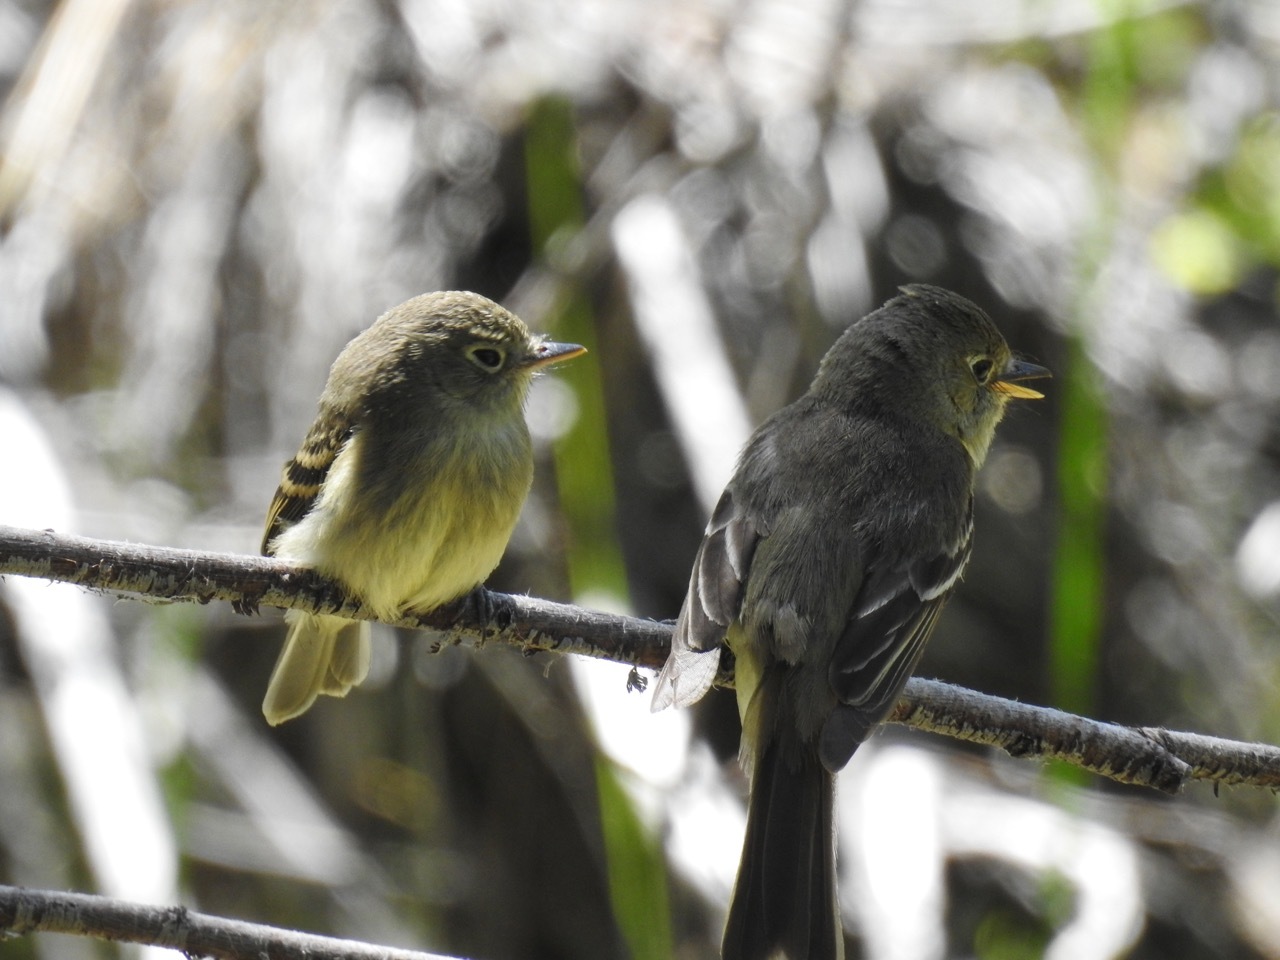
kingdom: Animalia
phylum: Chordata
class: Aves
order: Passeriformes
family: Tyrannidae
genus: Empidonax
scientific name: Empidonax difficilis
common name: Pacific-slope flycatcher
